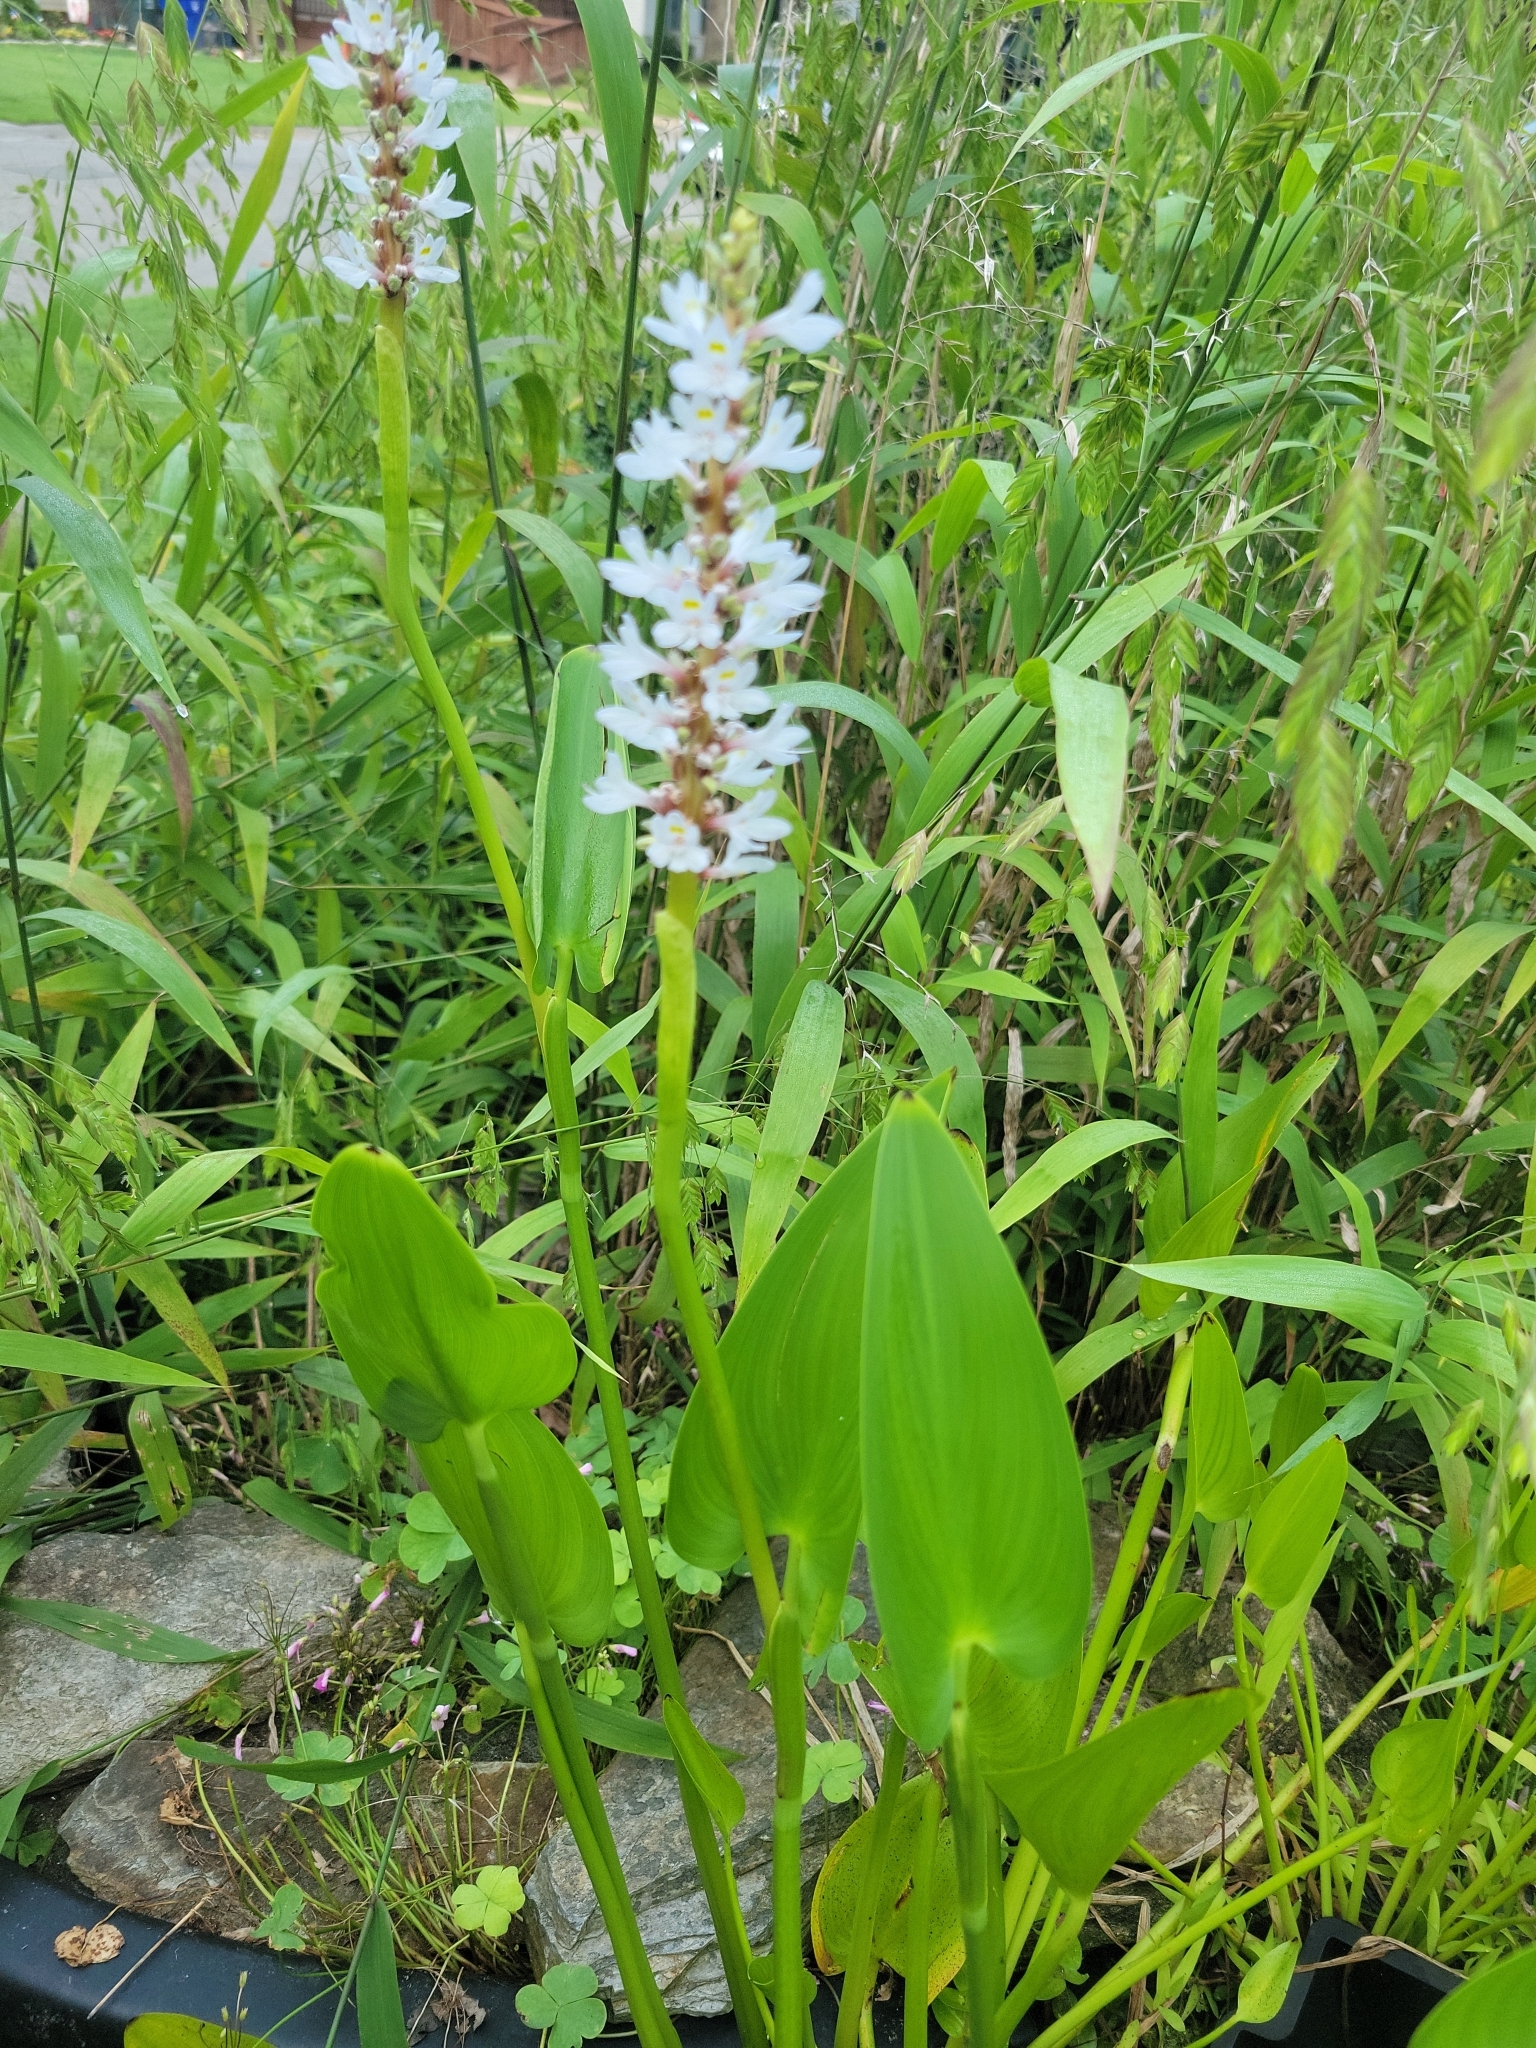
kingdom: Plantae
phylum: Tracheophyta
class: Liliopsida
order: Commelinales
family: Pontederiaceae
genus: Pontederia
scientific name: Pontederia cordata
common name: Pickerelweed
